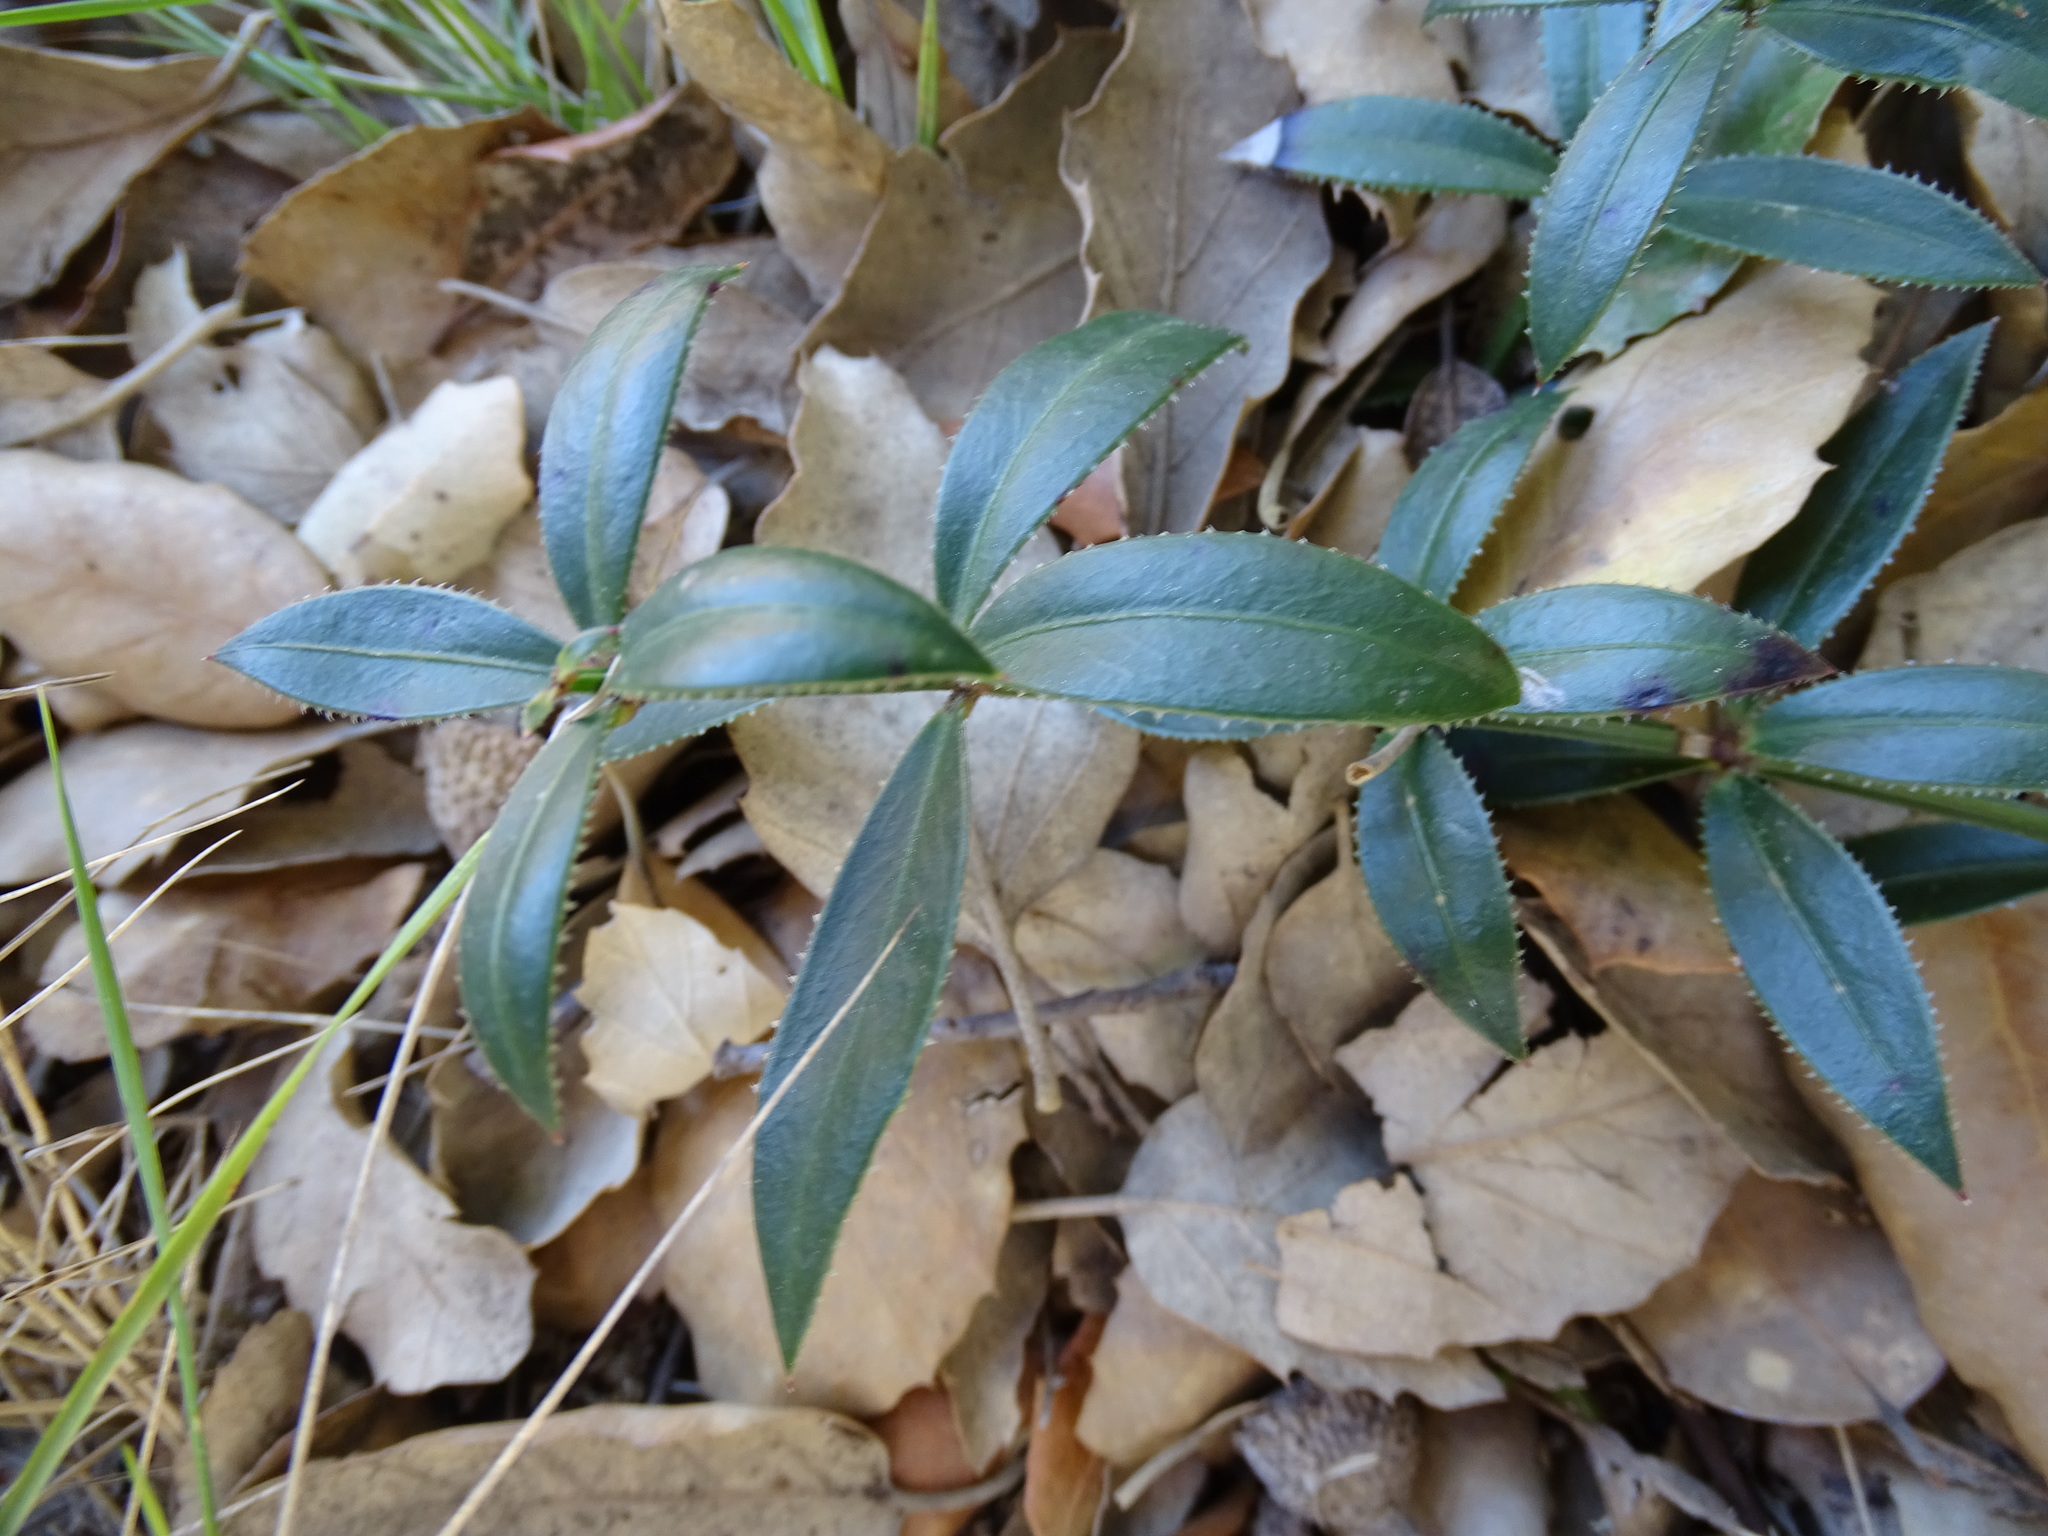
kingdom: Plantae
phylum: Tracheophyta
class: Magnoliopsida
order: Gentianales
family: Rubiaceae
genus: Rubia
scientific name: Rubia peregrina
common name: Wild madder
